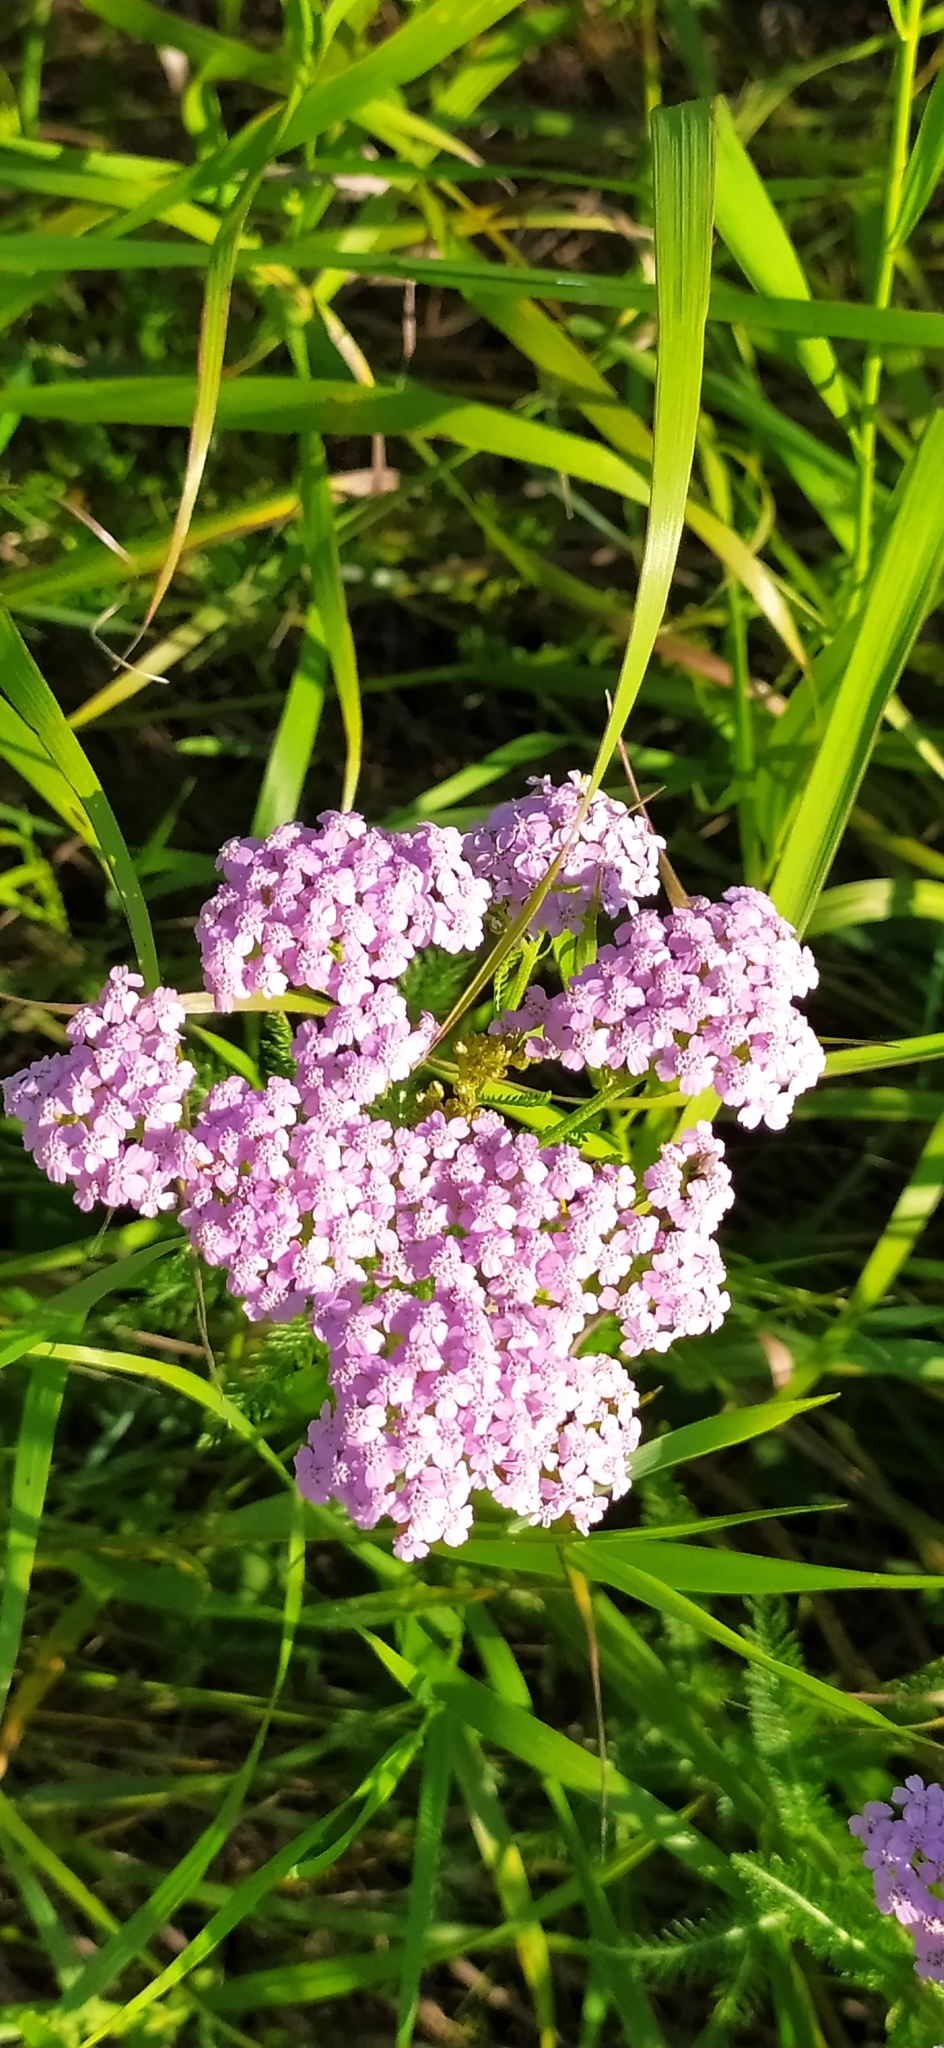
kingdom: Plantae
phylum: Tracheophyta
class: Magnoliopsida
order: Asterales
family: Asteraceae
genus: Achillea
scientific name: Achillea asiatica
